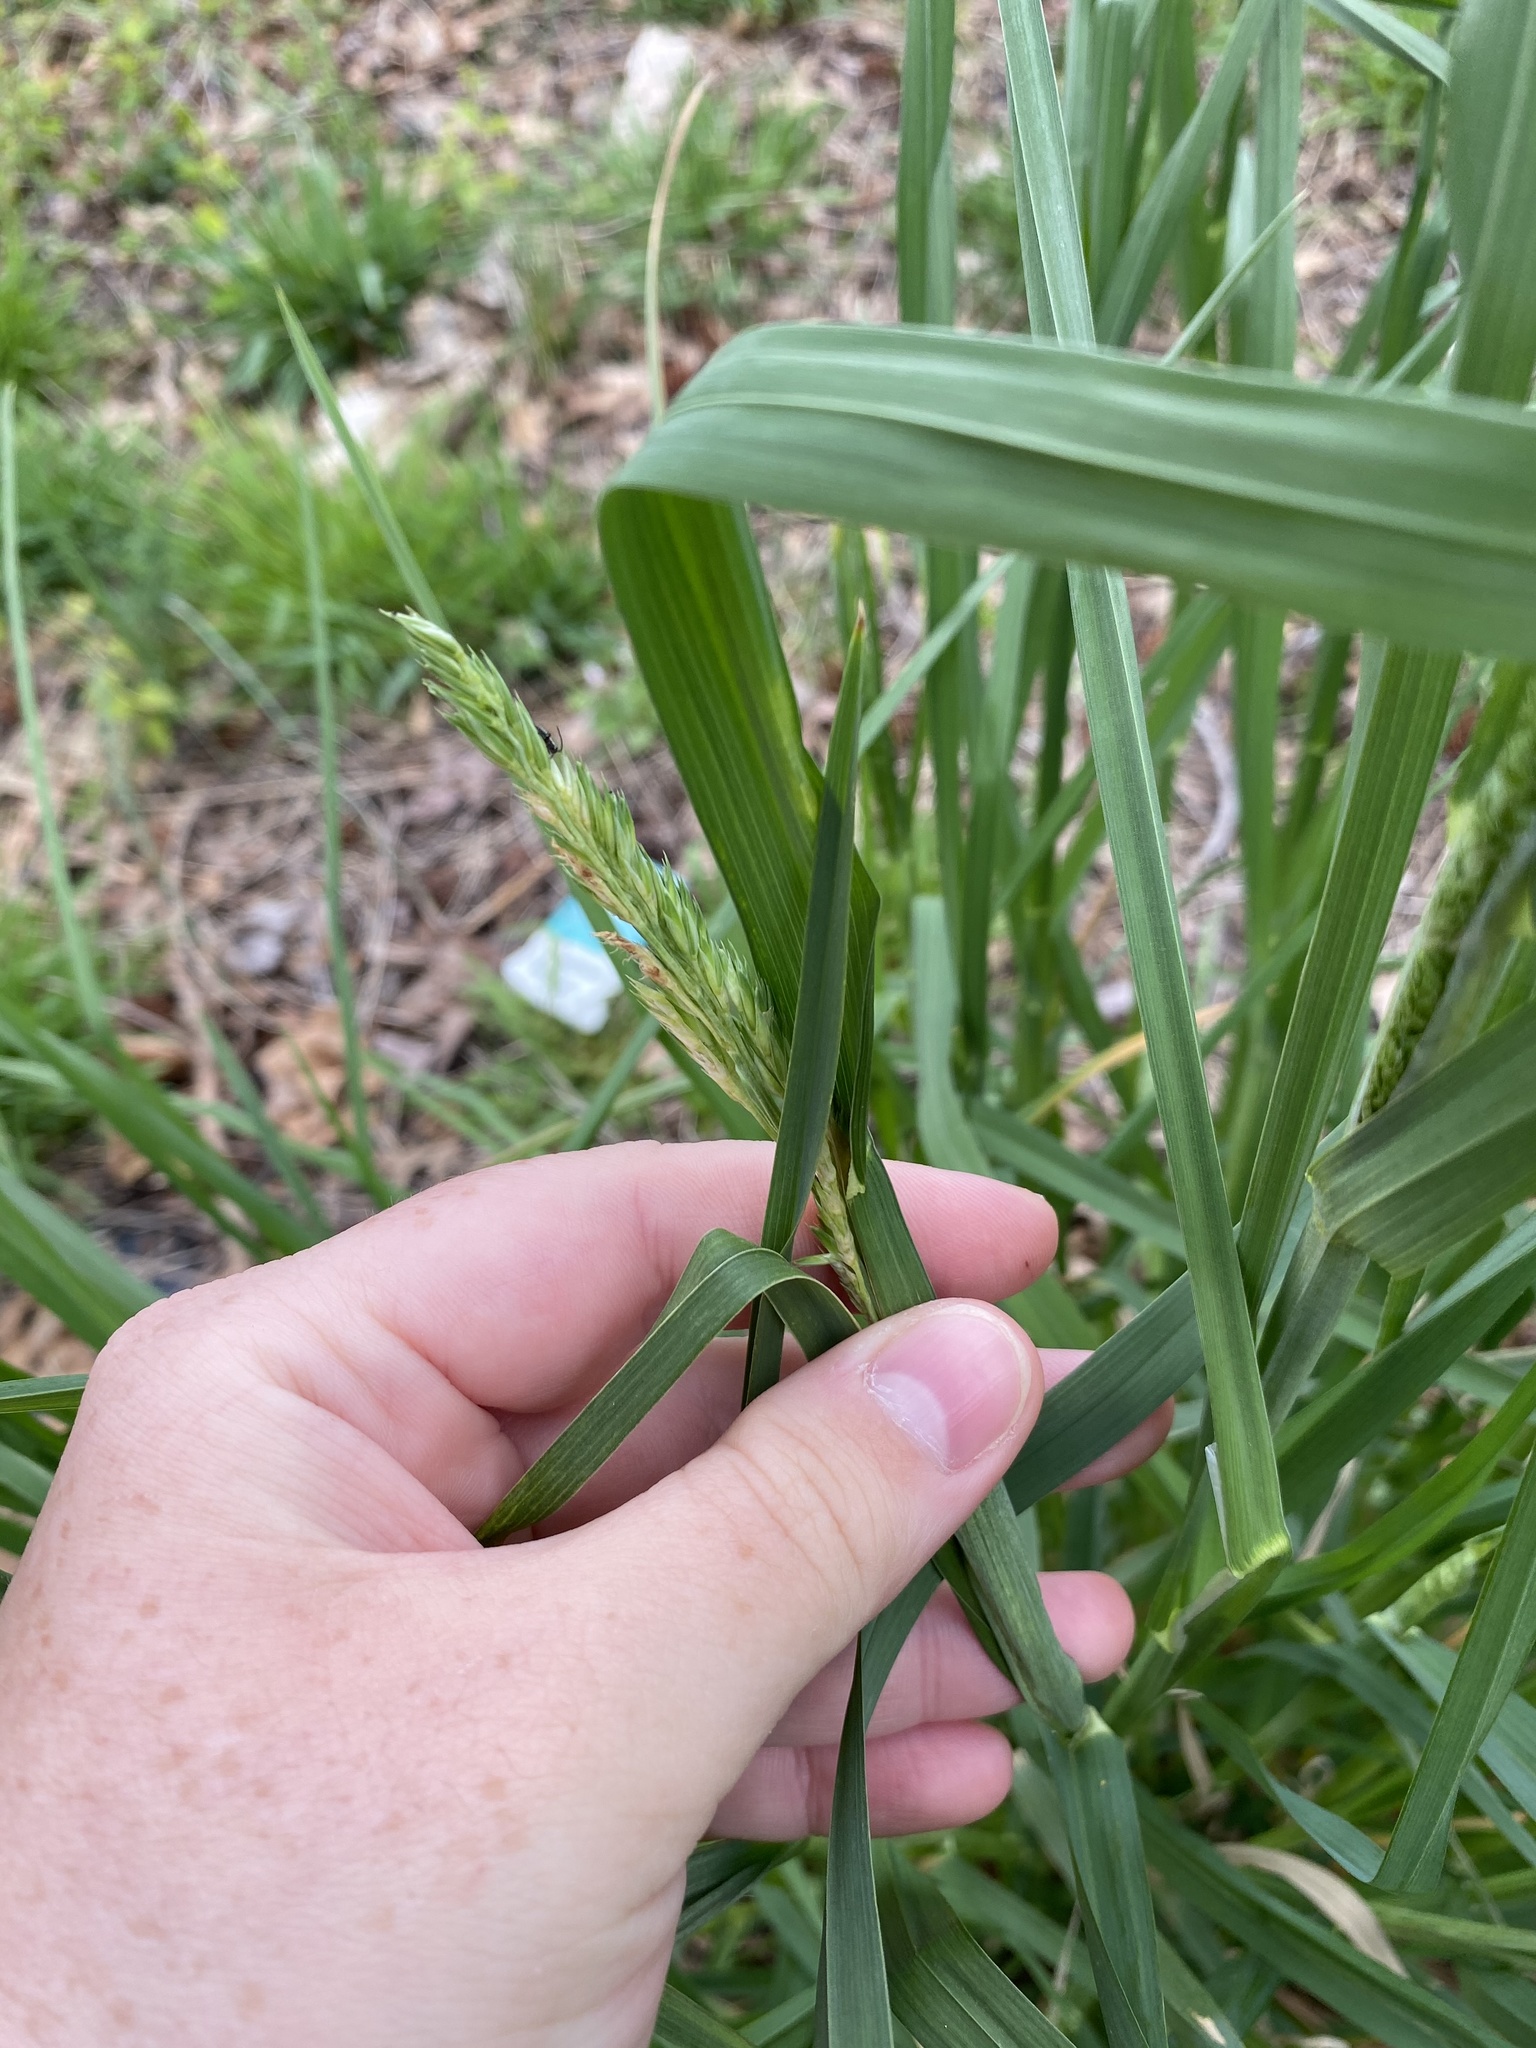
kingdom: Plantae
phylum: Tracheophyta
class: Liliopsida
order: Poales
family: Poaceae
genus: Dactylis
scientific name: Dactylis glomerata
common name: Orchardgrass
